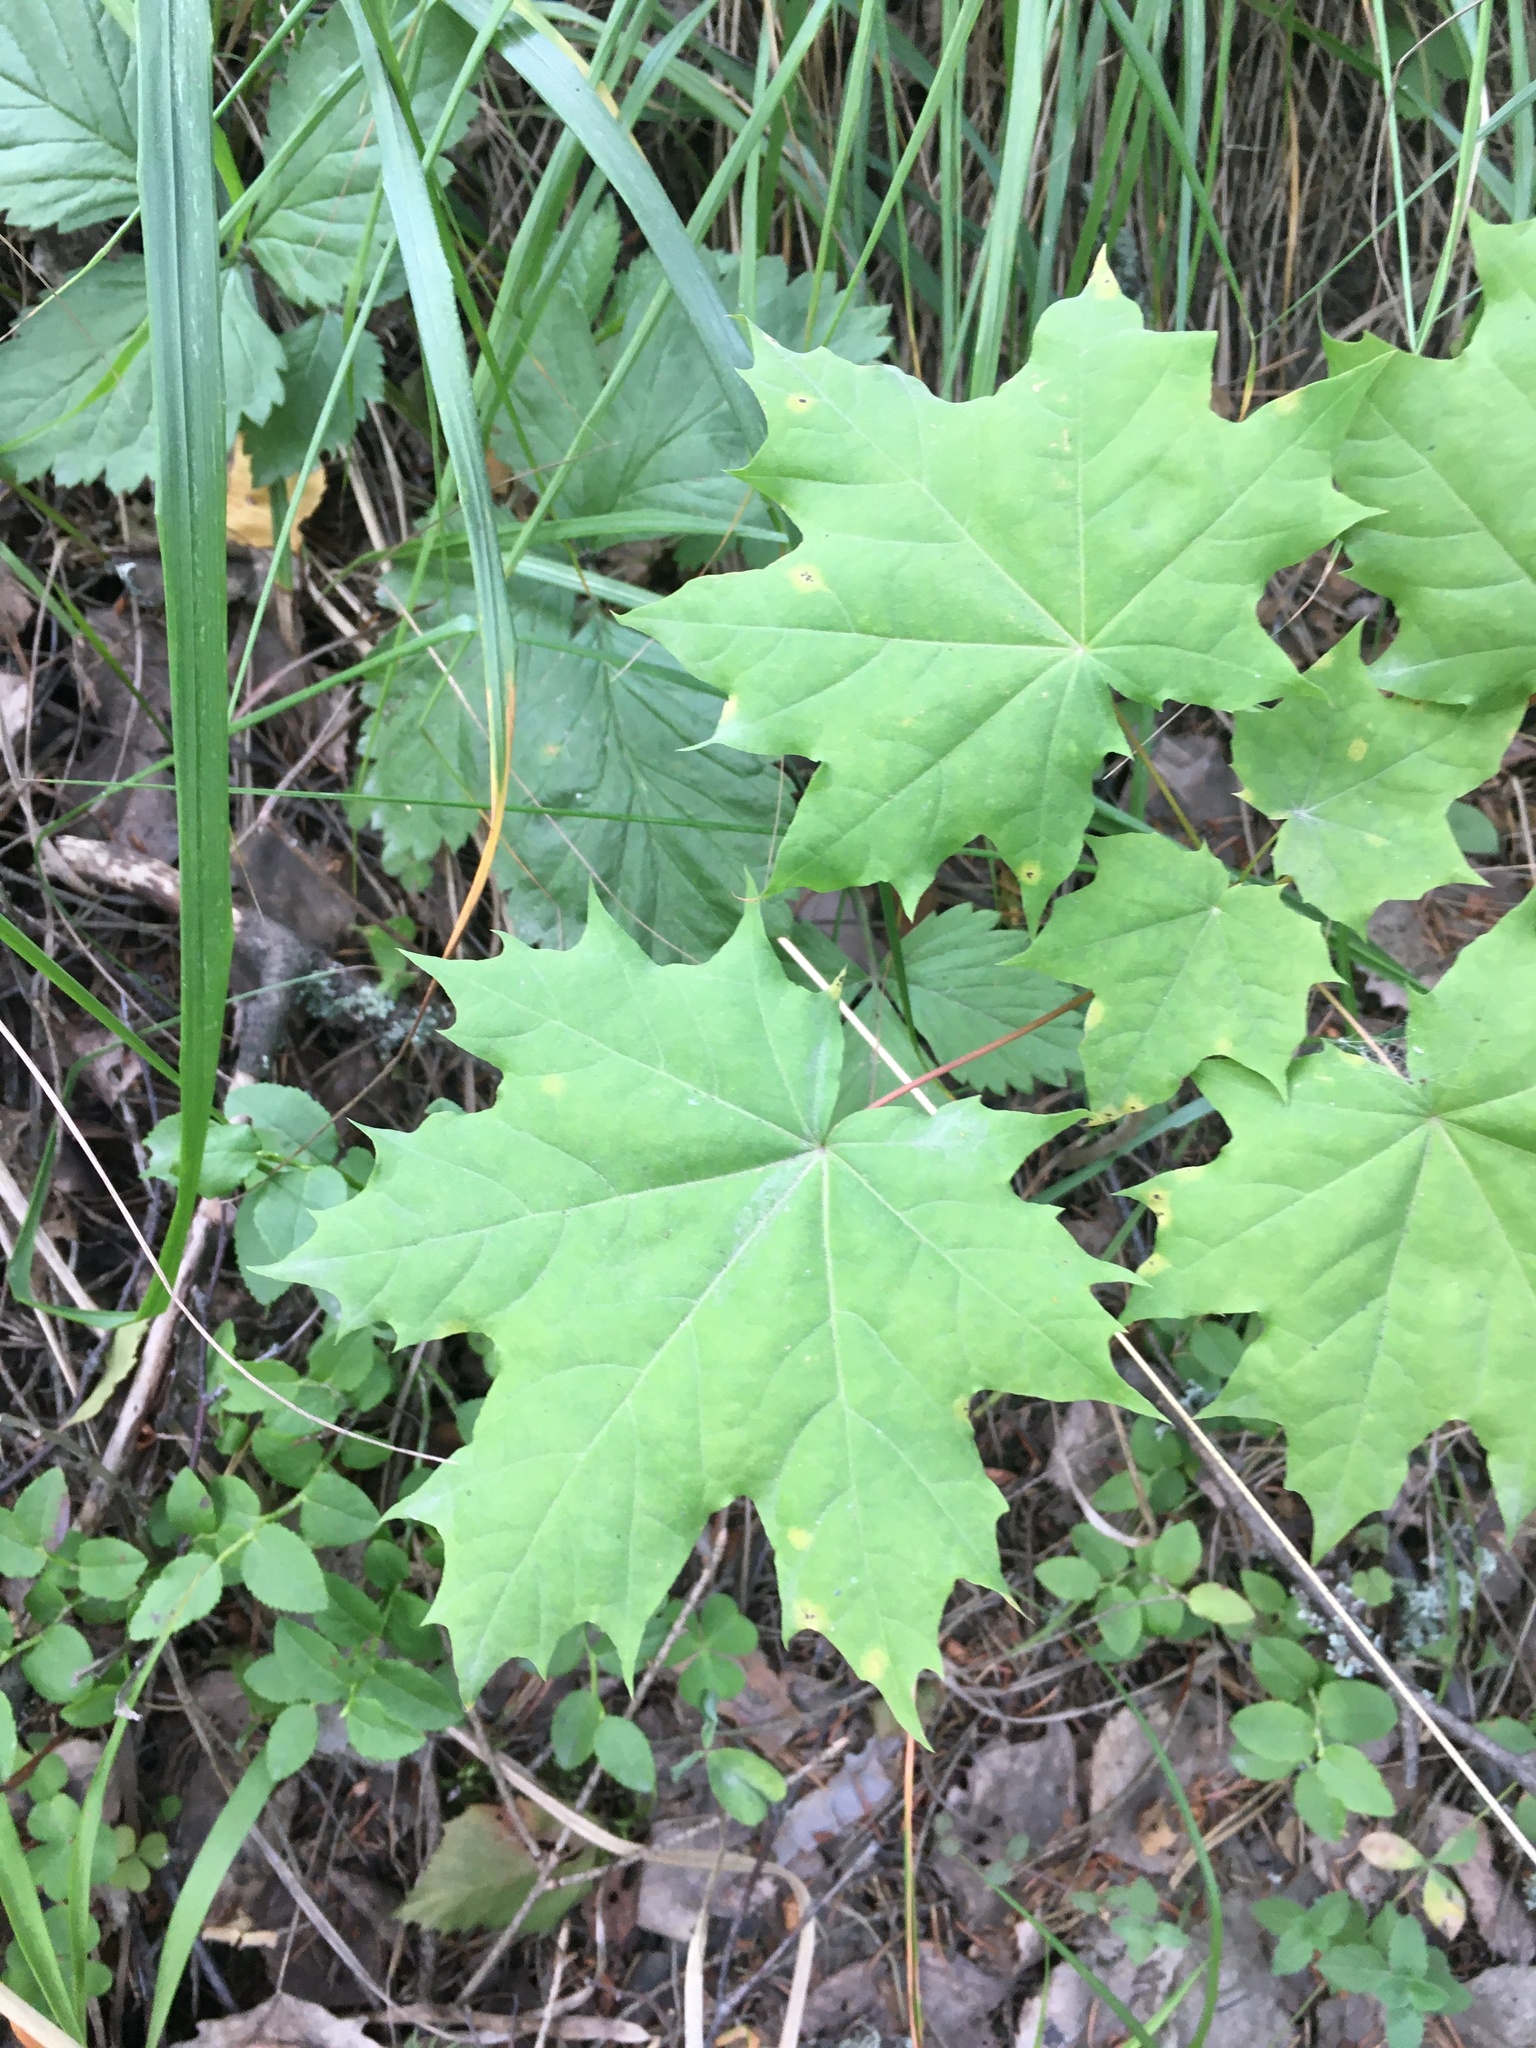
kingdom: Plantae
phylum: Tracheophyta
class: Magnoliopsida
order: Sapindales
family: Sapindaceae
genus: Acer
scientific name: Acer platanoides
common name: Norway maple
